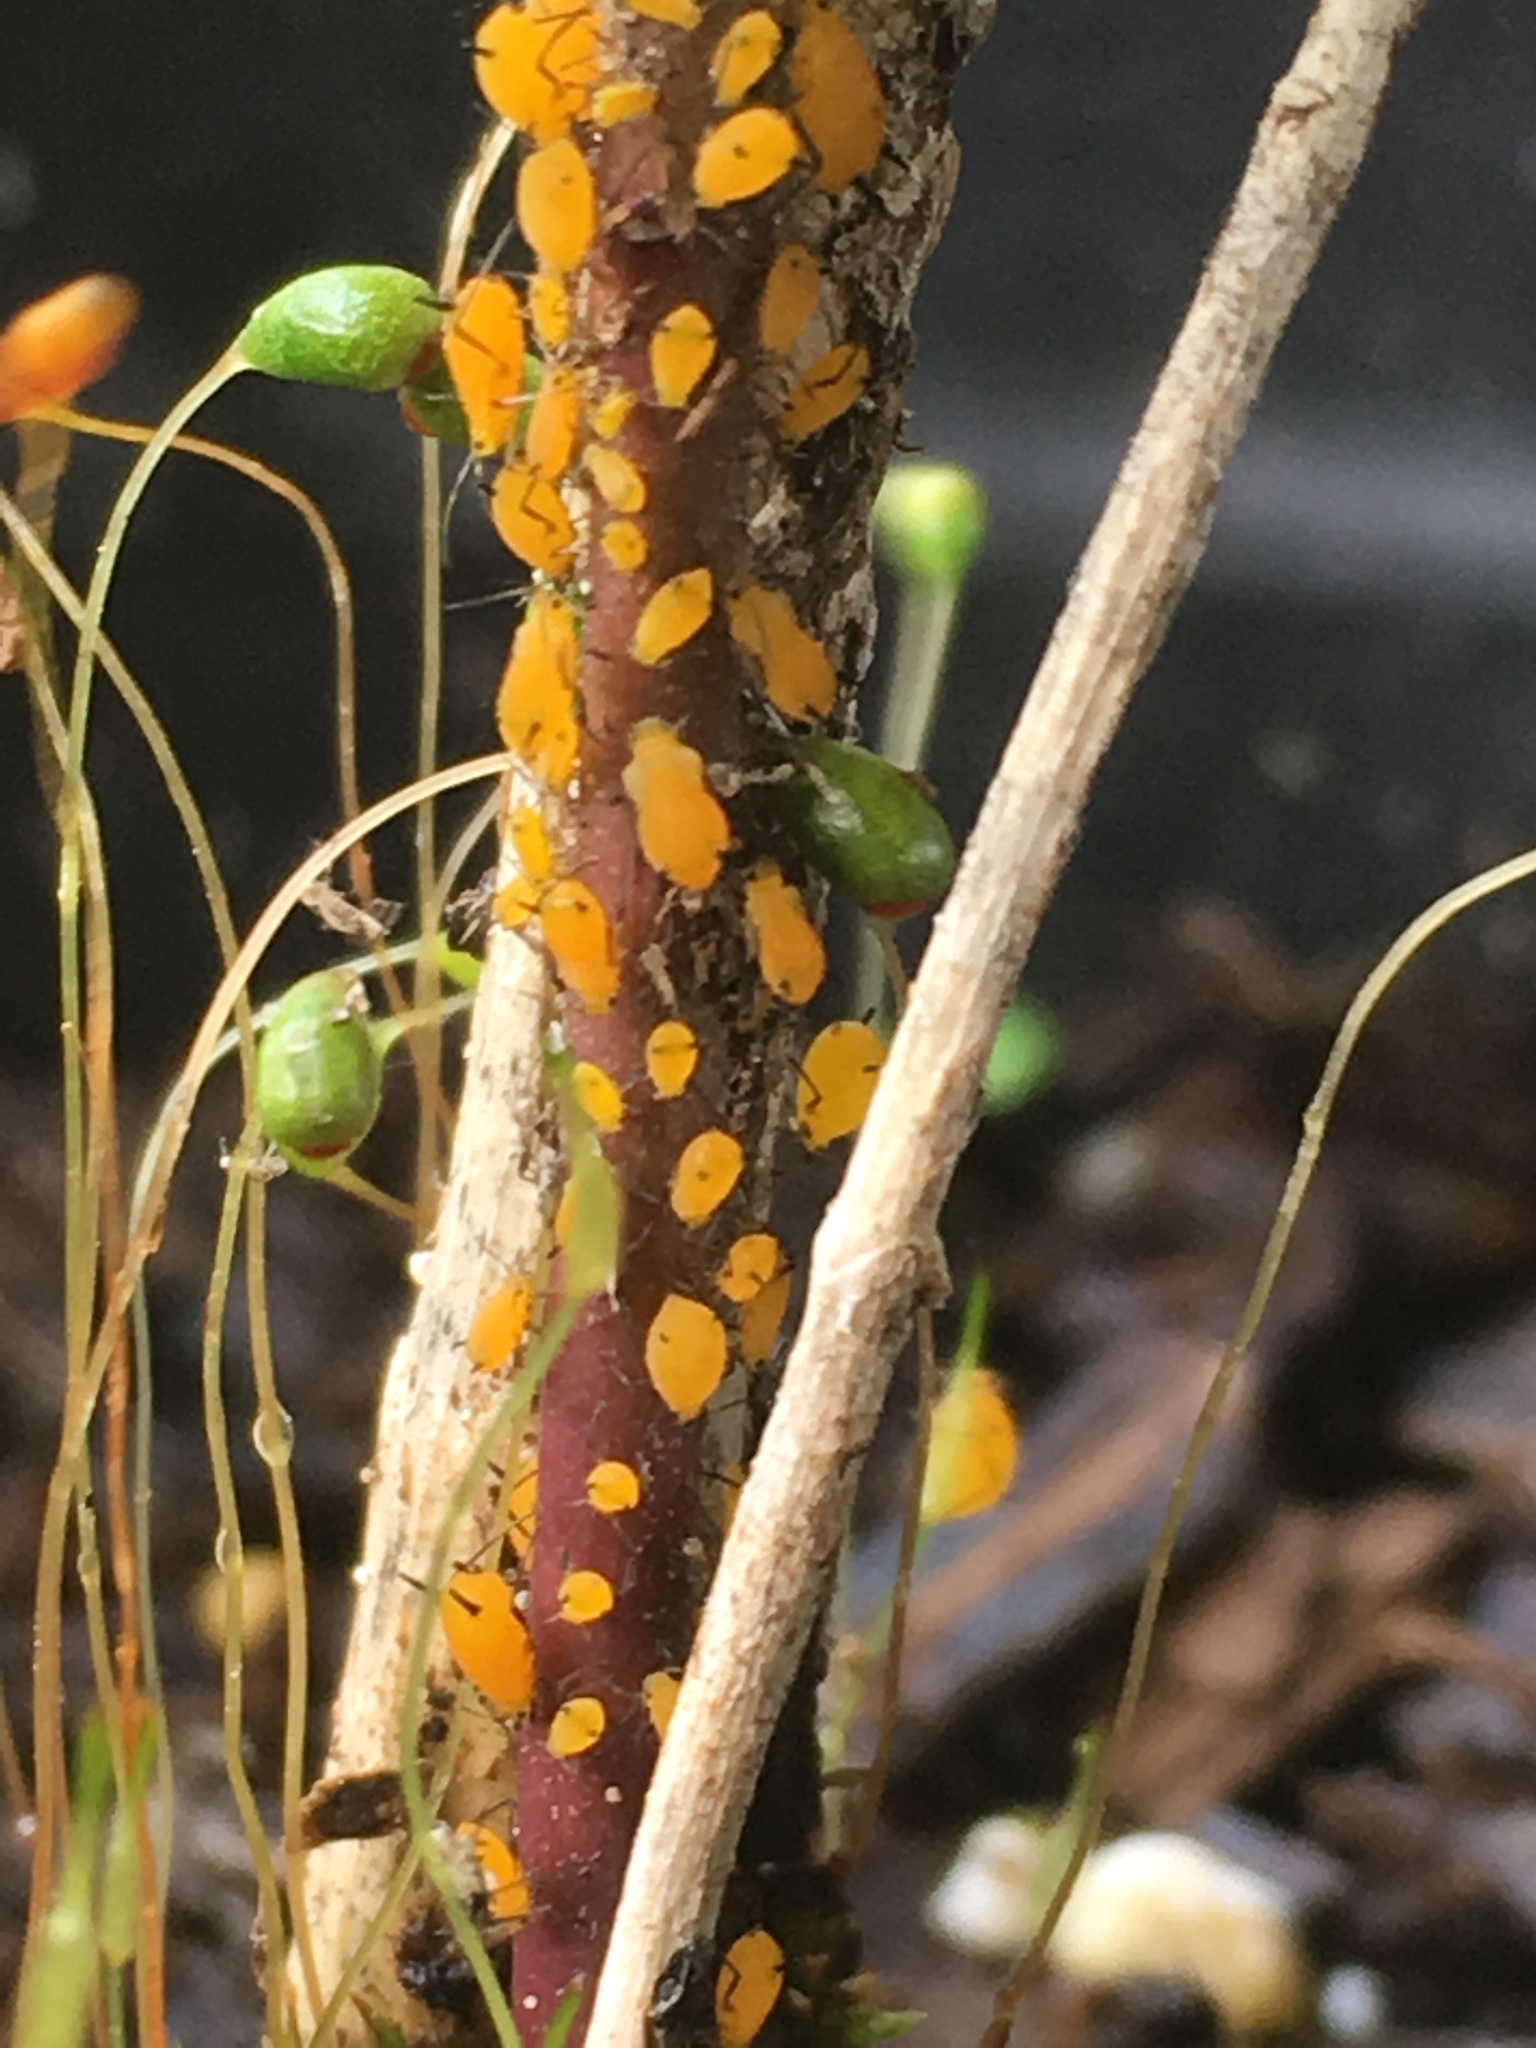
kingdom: Animalia
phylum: Arthropoda
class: Insecta
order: Hemiptera
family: Aphididae
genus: Aphis
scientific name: Aphis nerii
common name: Oleander aphid
